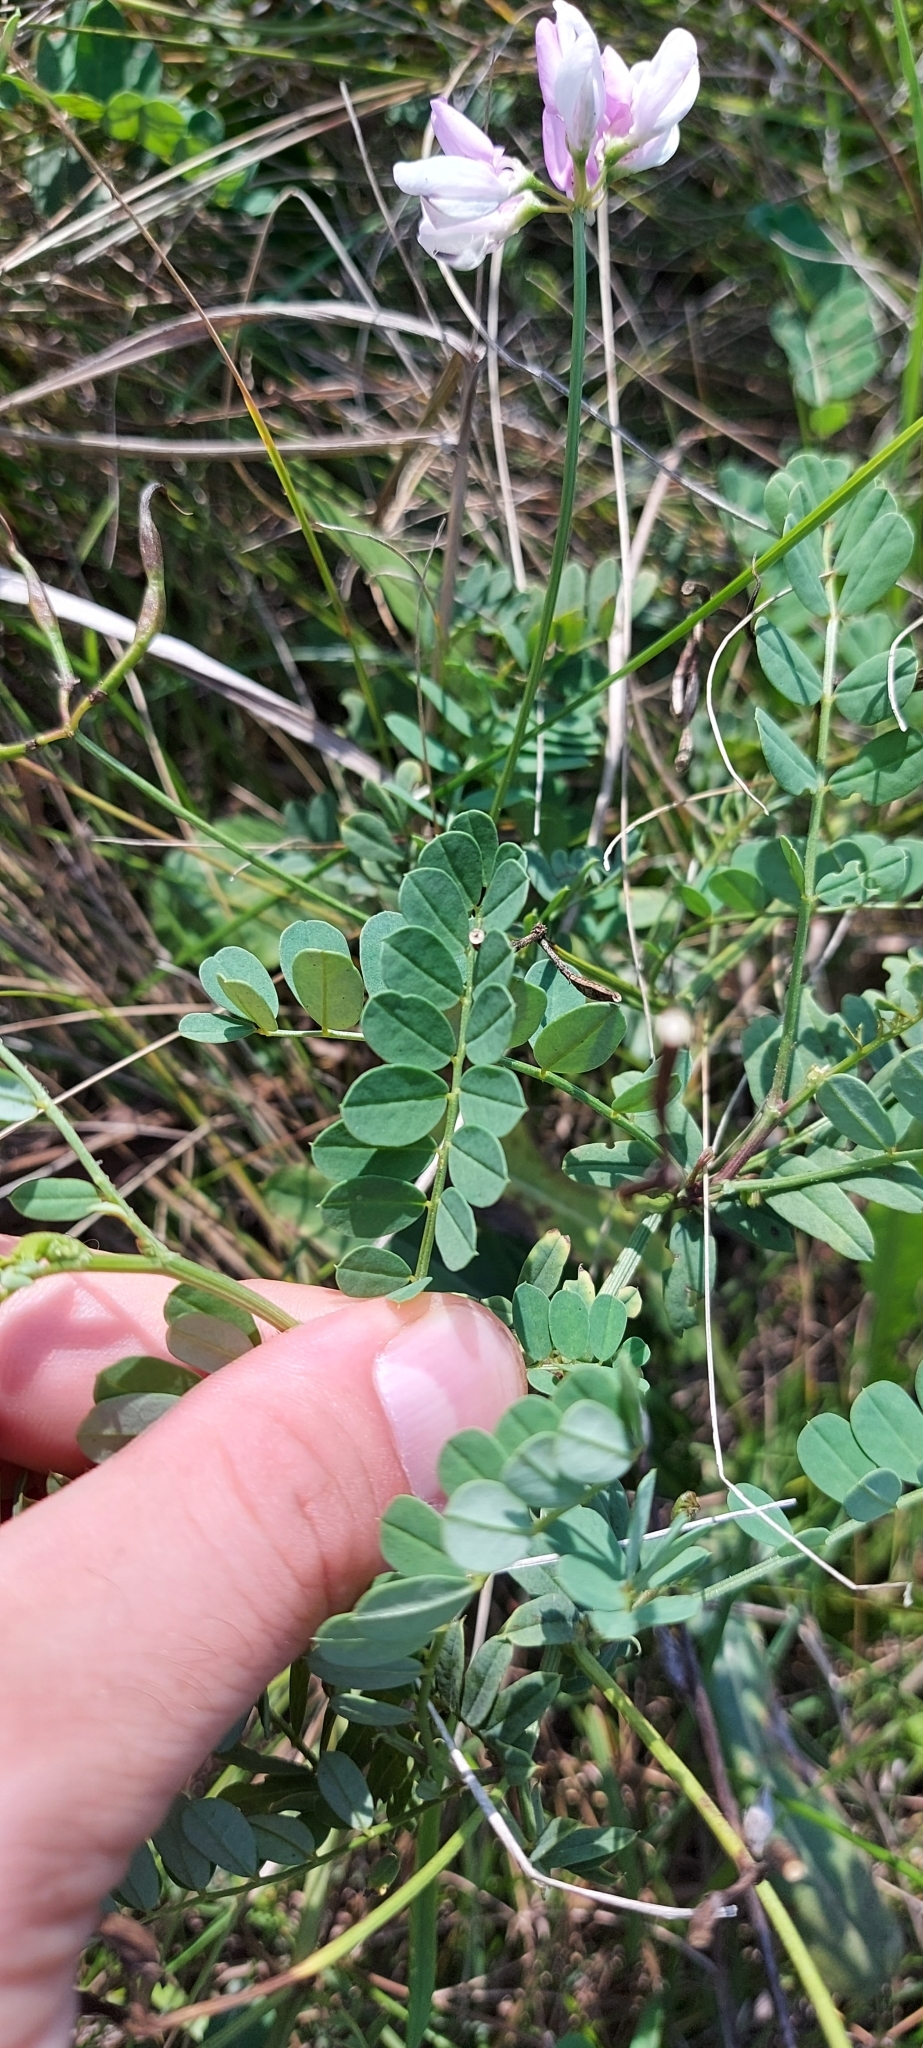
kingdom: Plantae
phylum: Tracheophyta
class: Magnoliopsida
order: Fabales
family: Fabaceae
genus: Coronilla
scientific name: Coronilla varia
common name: Crownvetch
